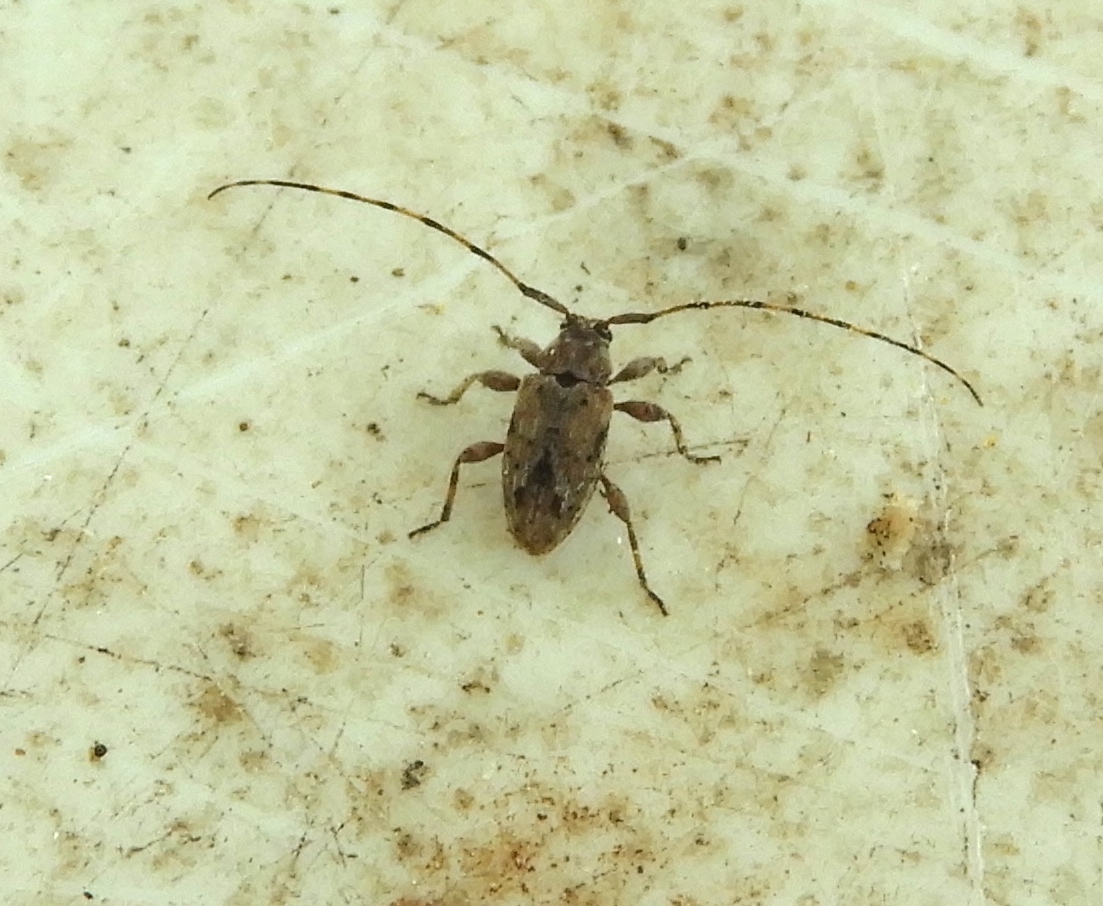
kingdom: Animalia
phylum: Arthropoda
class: Insecta
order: Coleoptera
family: Cerambycidae
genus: Sternidius
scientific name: Sternidius
